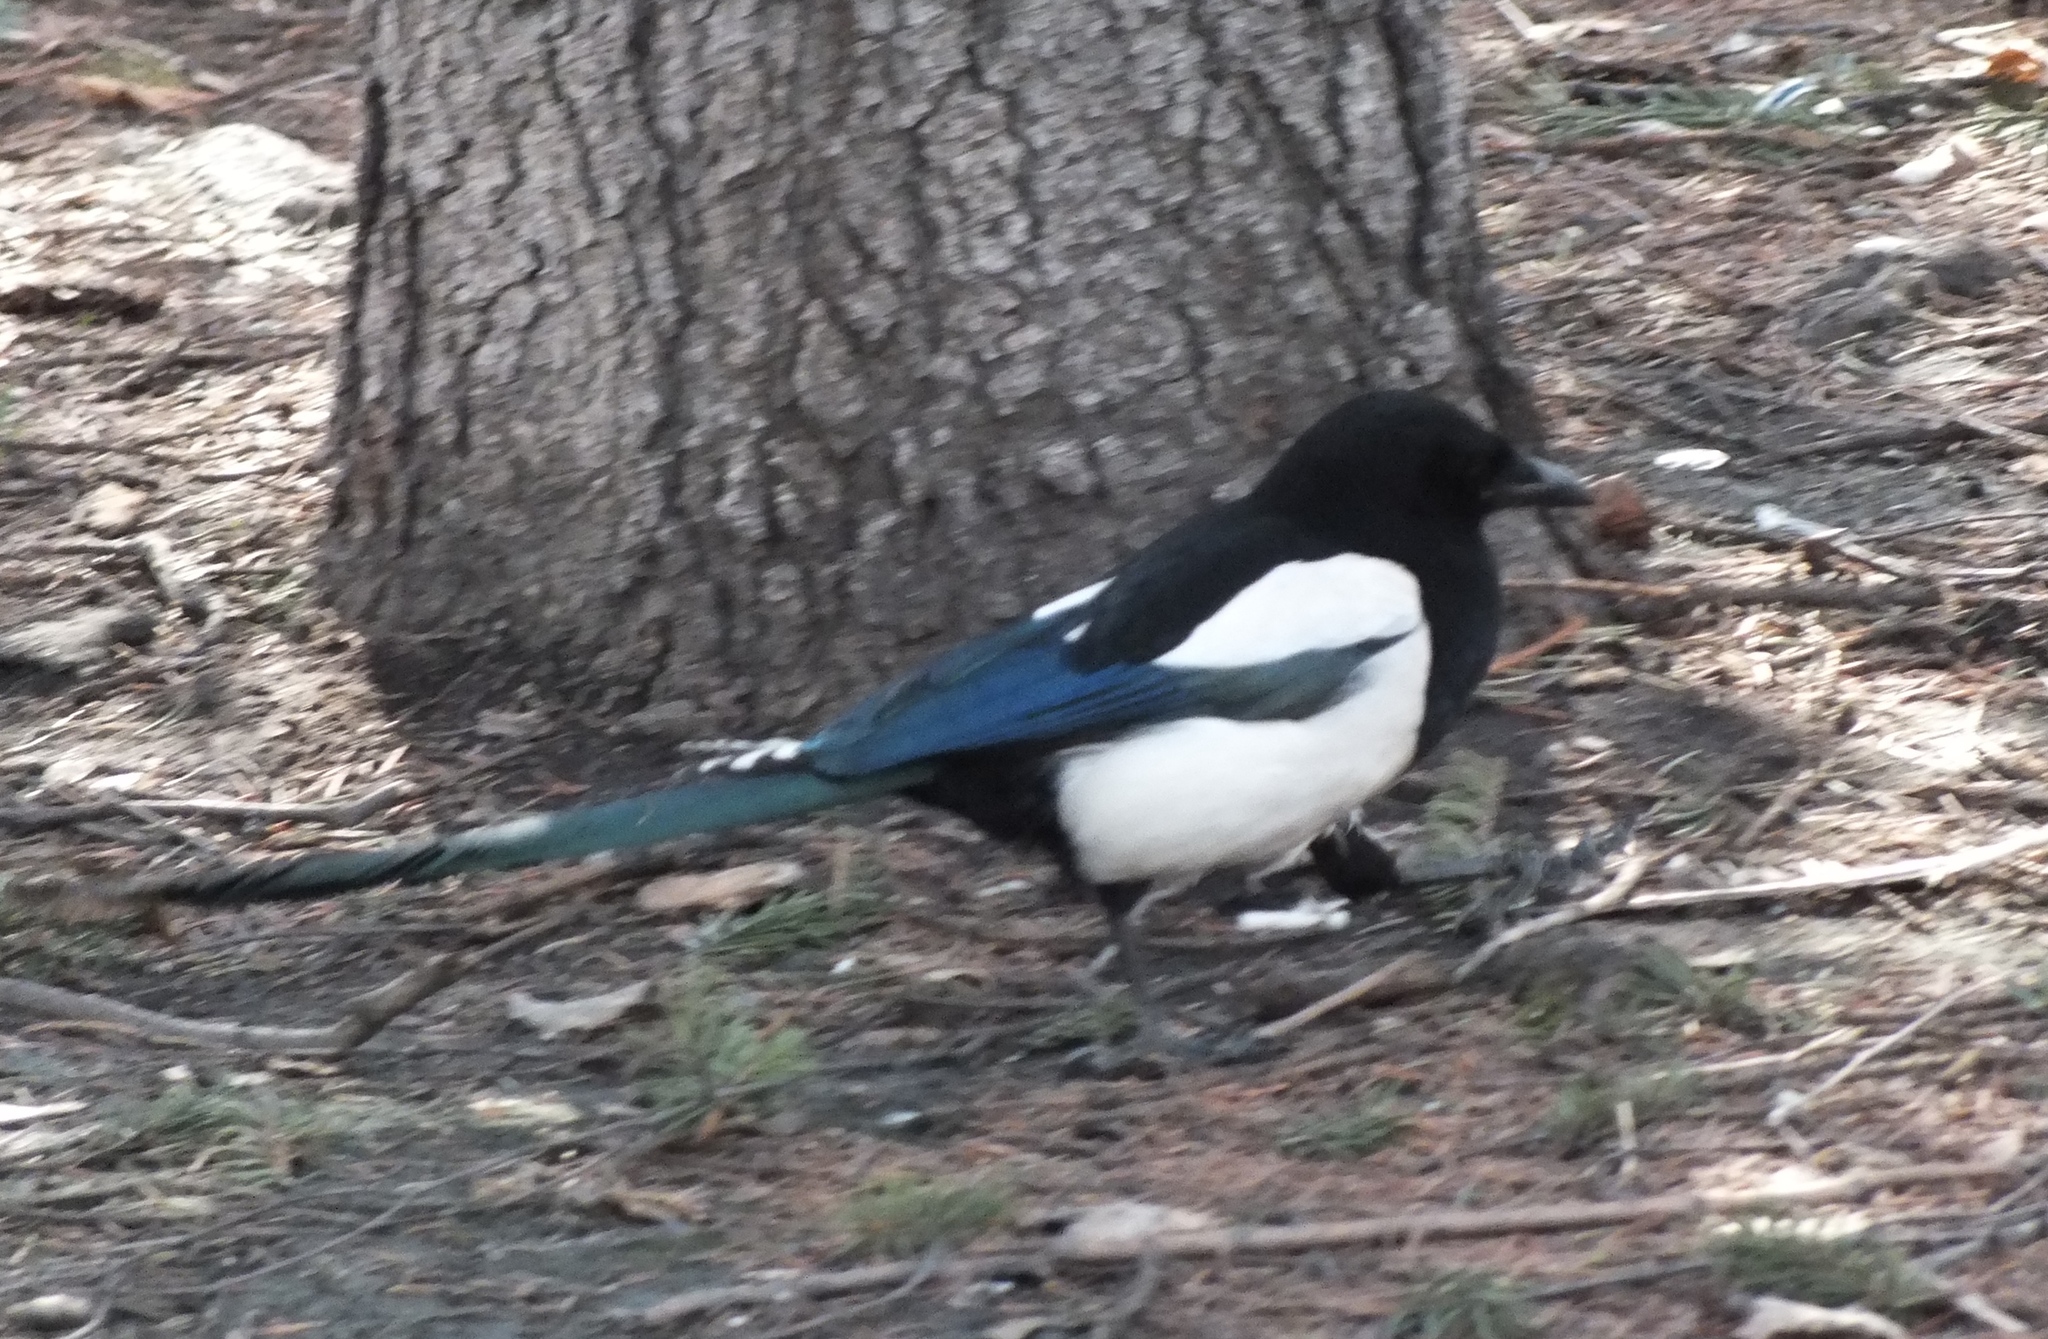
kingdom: Animalia
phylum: Chordata
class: Aves
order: Passeriformes
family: Corvidae
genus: Pica
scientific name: Pica pica
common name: Eurasian magpie
